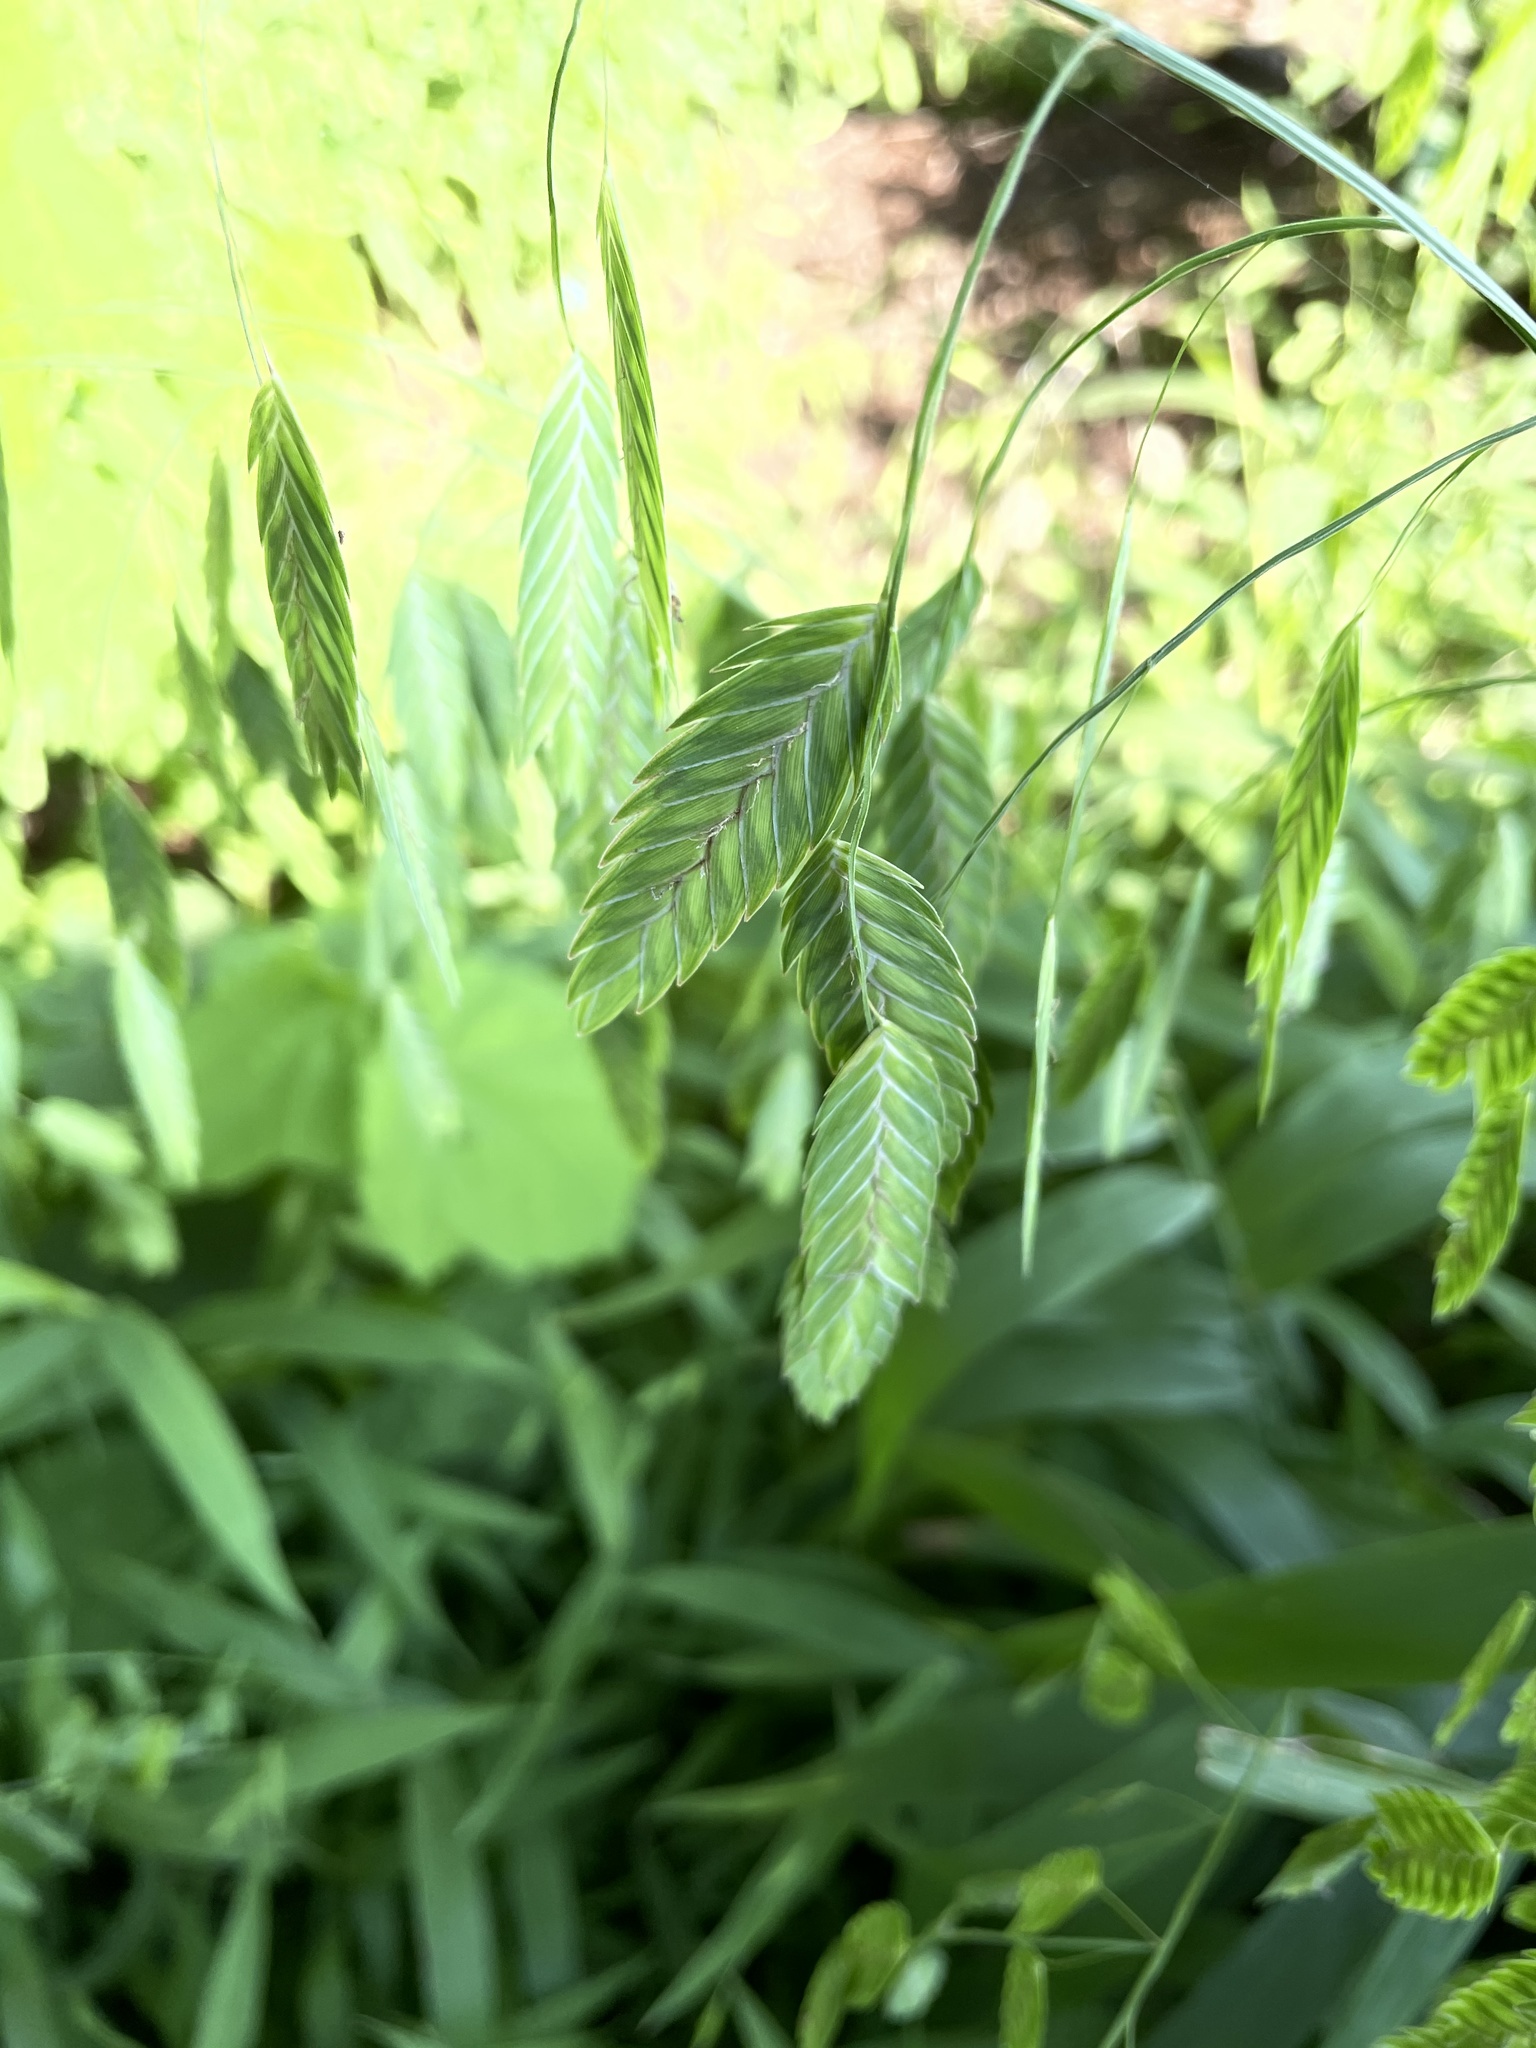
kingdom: Plantae
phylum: Tracheophyta
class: Liliopsida
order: Poales
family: Poaceae
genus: Chasmanthium
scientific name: Chasmanthium latifolium
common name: Broad-leaved chasmanthium
